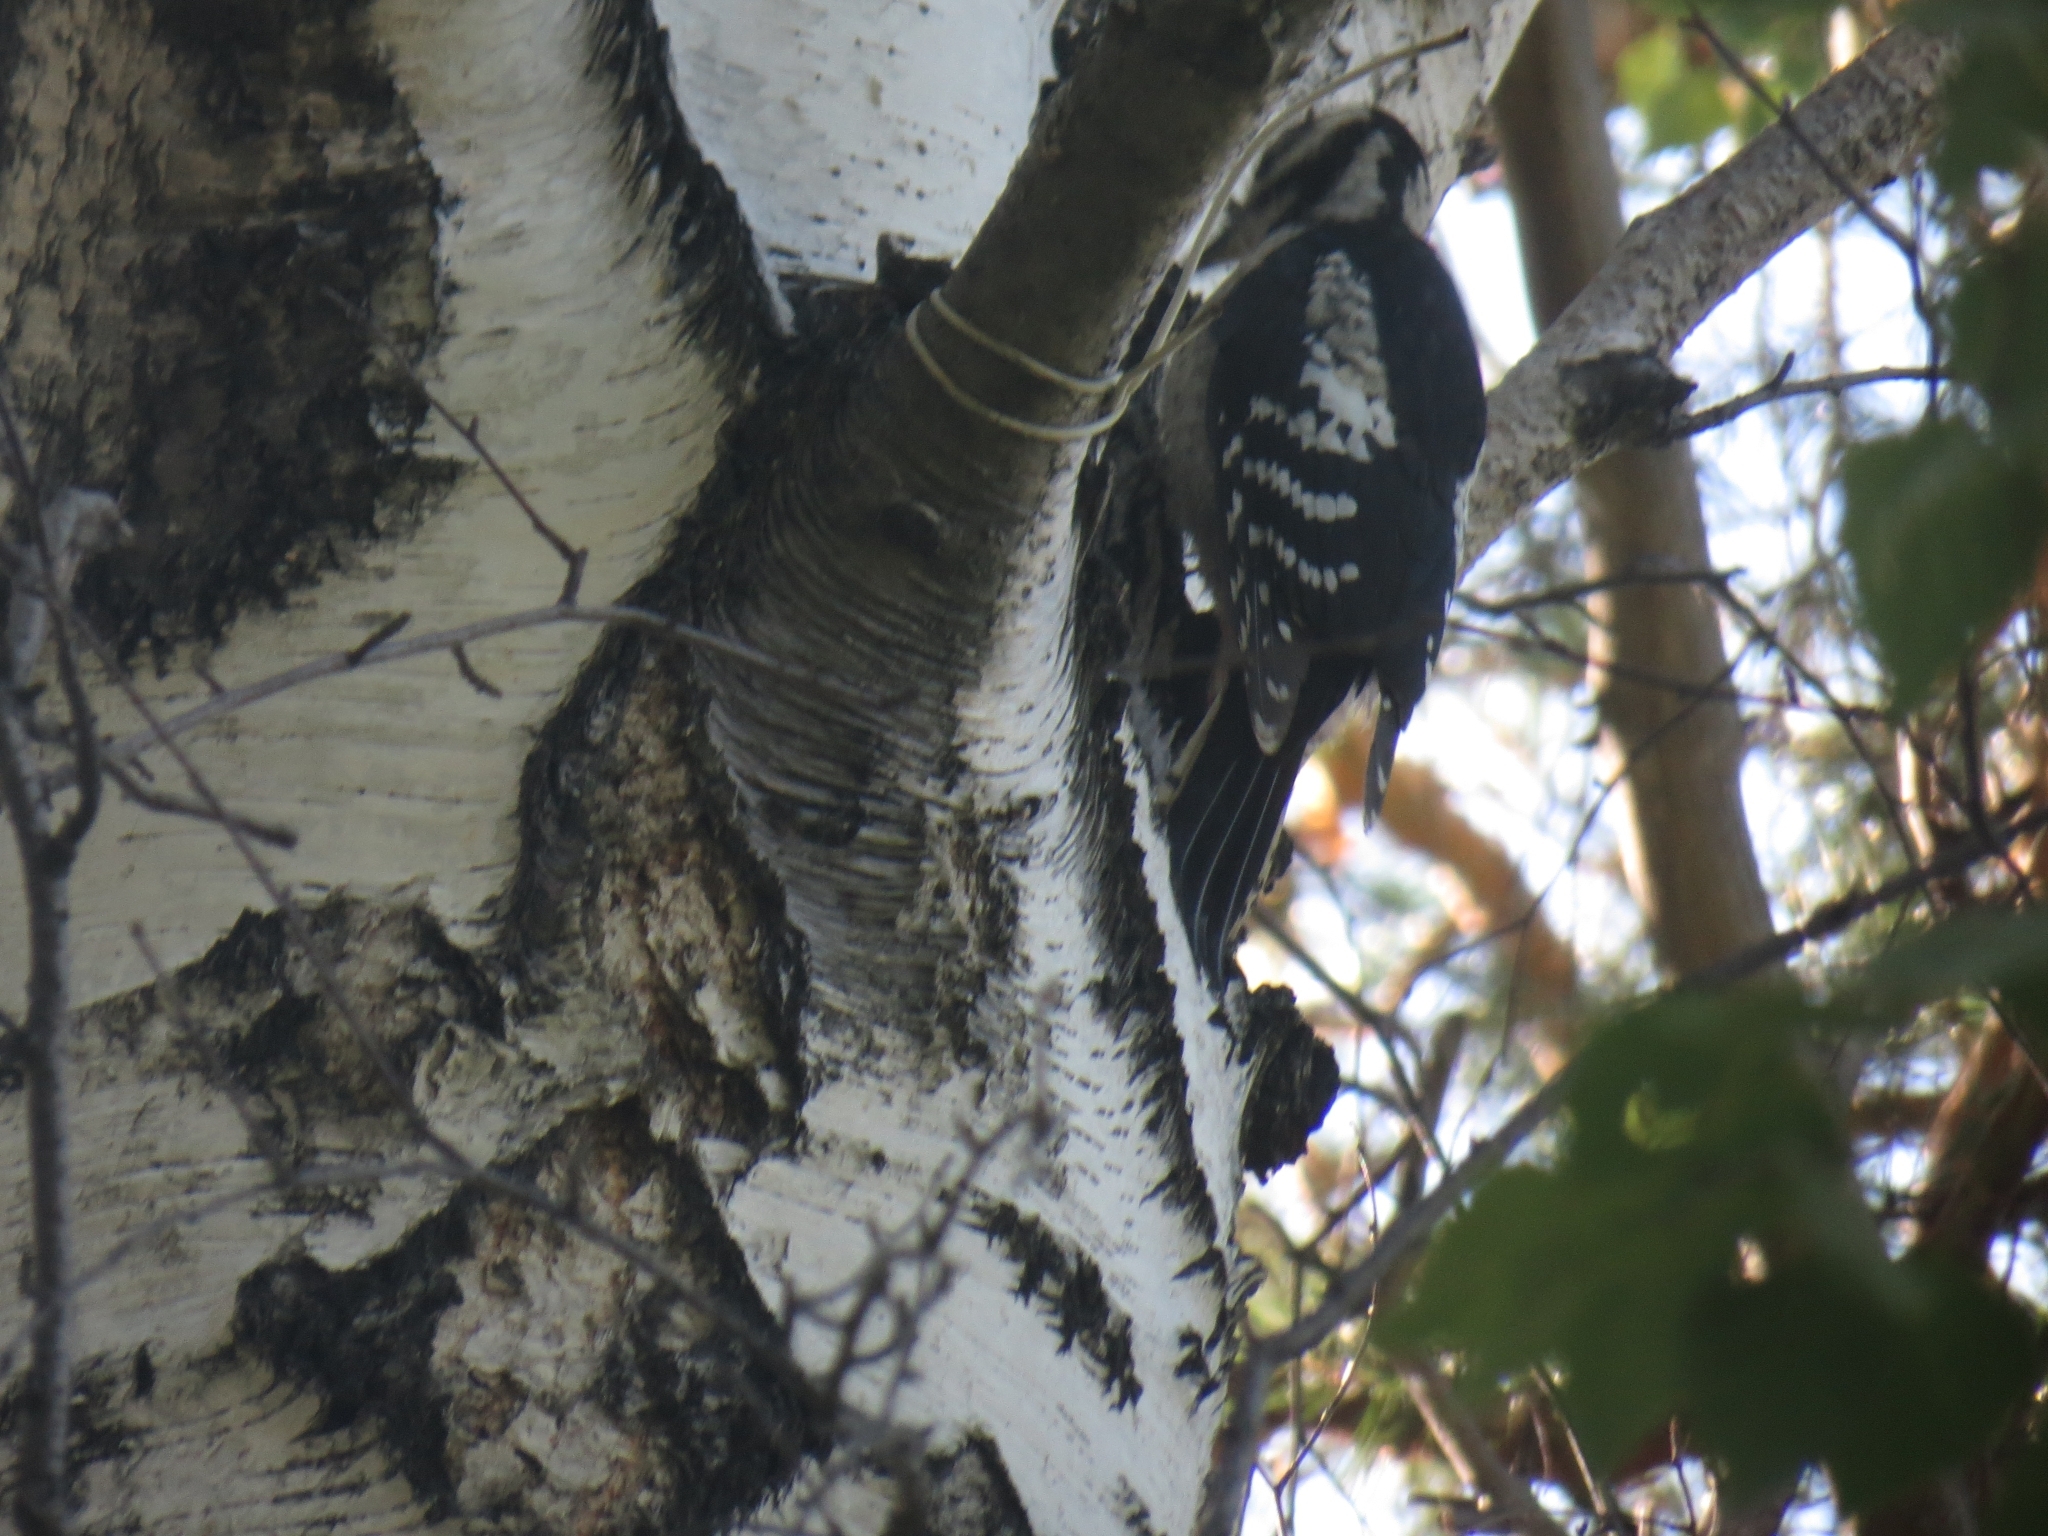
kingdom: Animalia
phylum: Chordata
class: Aves
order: Piciformes
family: Picidae
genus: Dendrocopos
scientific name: Dendrocopos major
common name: Great spotted woodpecker
